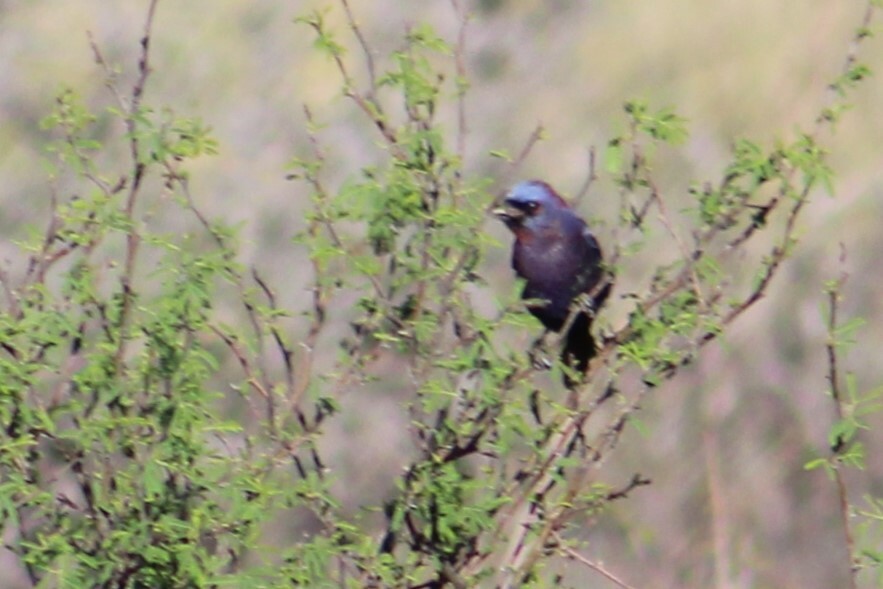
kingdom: Animalia
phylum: Chordata
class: Aves
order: Passeriformes
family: Cardinalidae
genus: Passerina
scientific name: Passerina versicolor
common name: Varied bunting
